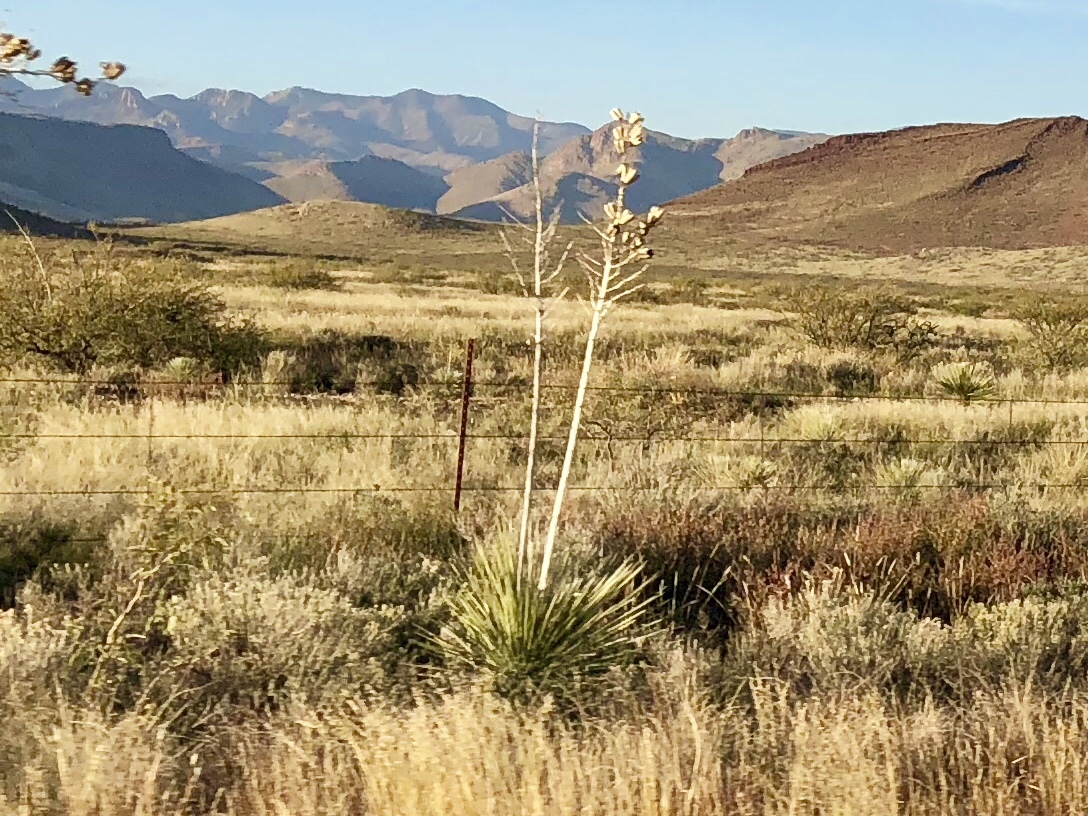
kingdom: Plantae
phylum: Tracheophyta
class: Liliopsida
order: Asparagales
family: Asparagaceae
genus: Yucca
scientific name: Yucca elata
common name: Palmella
